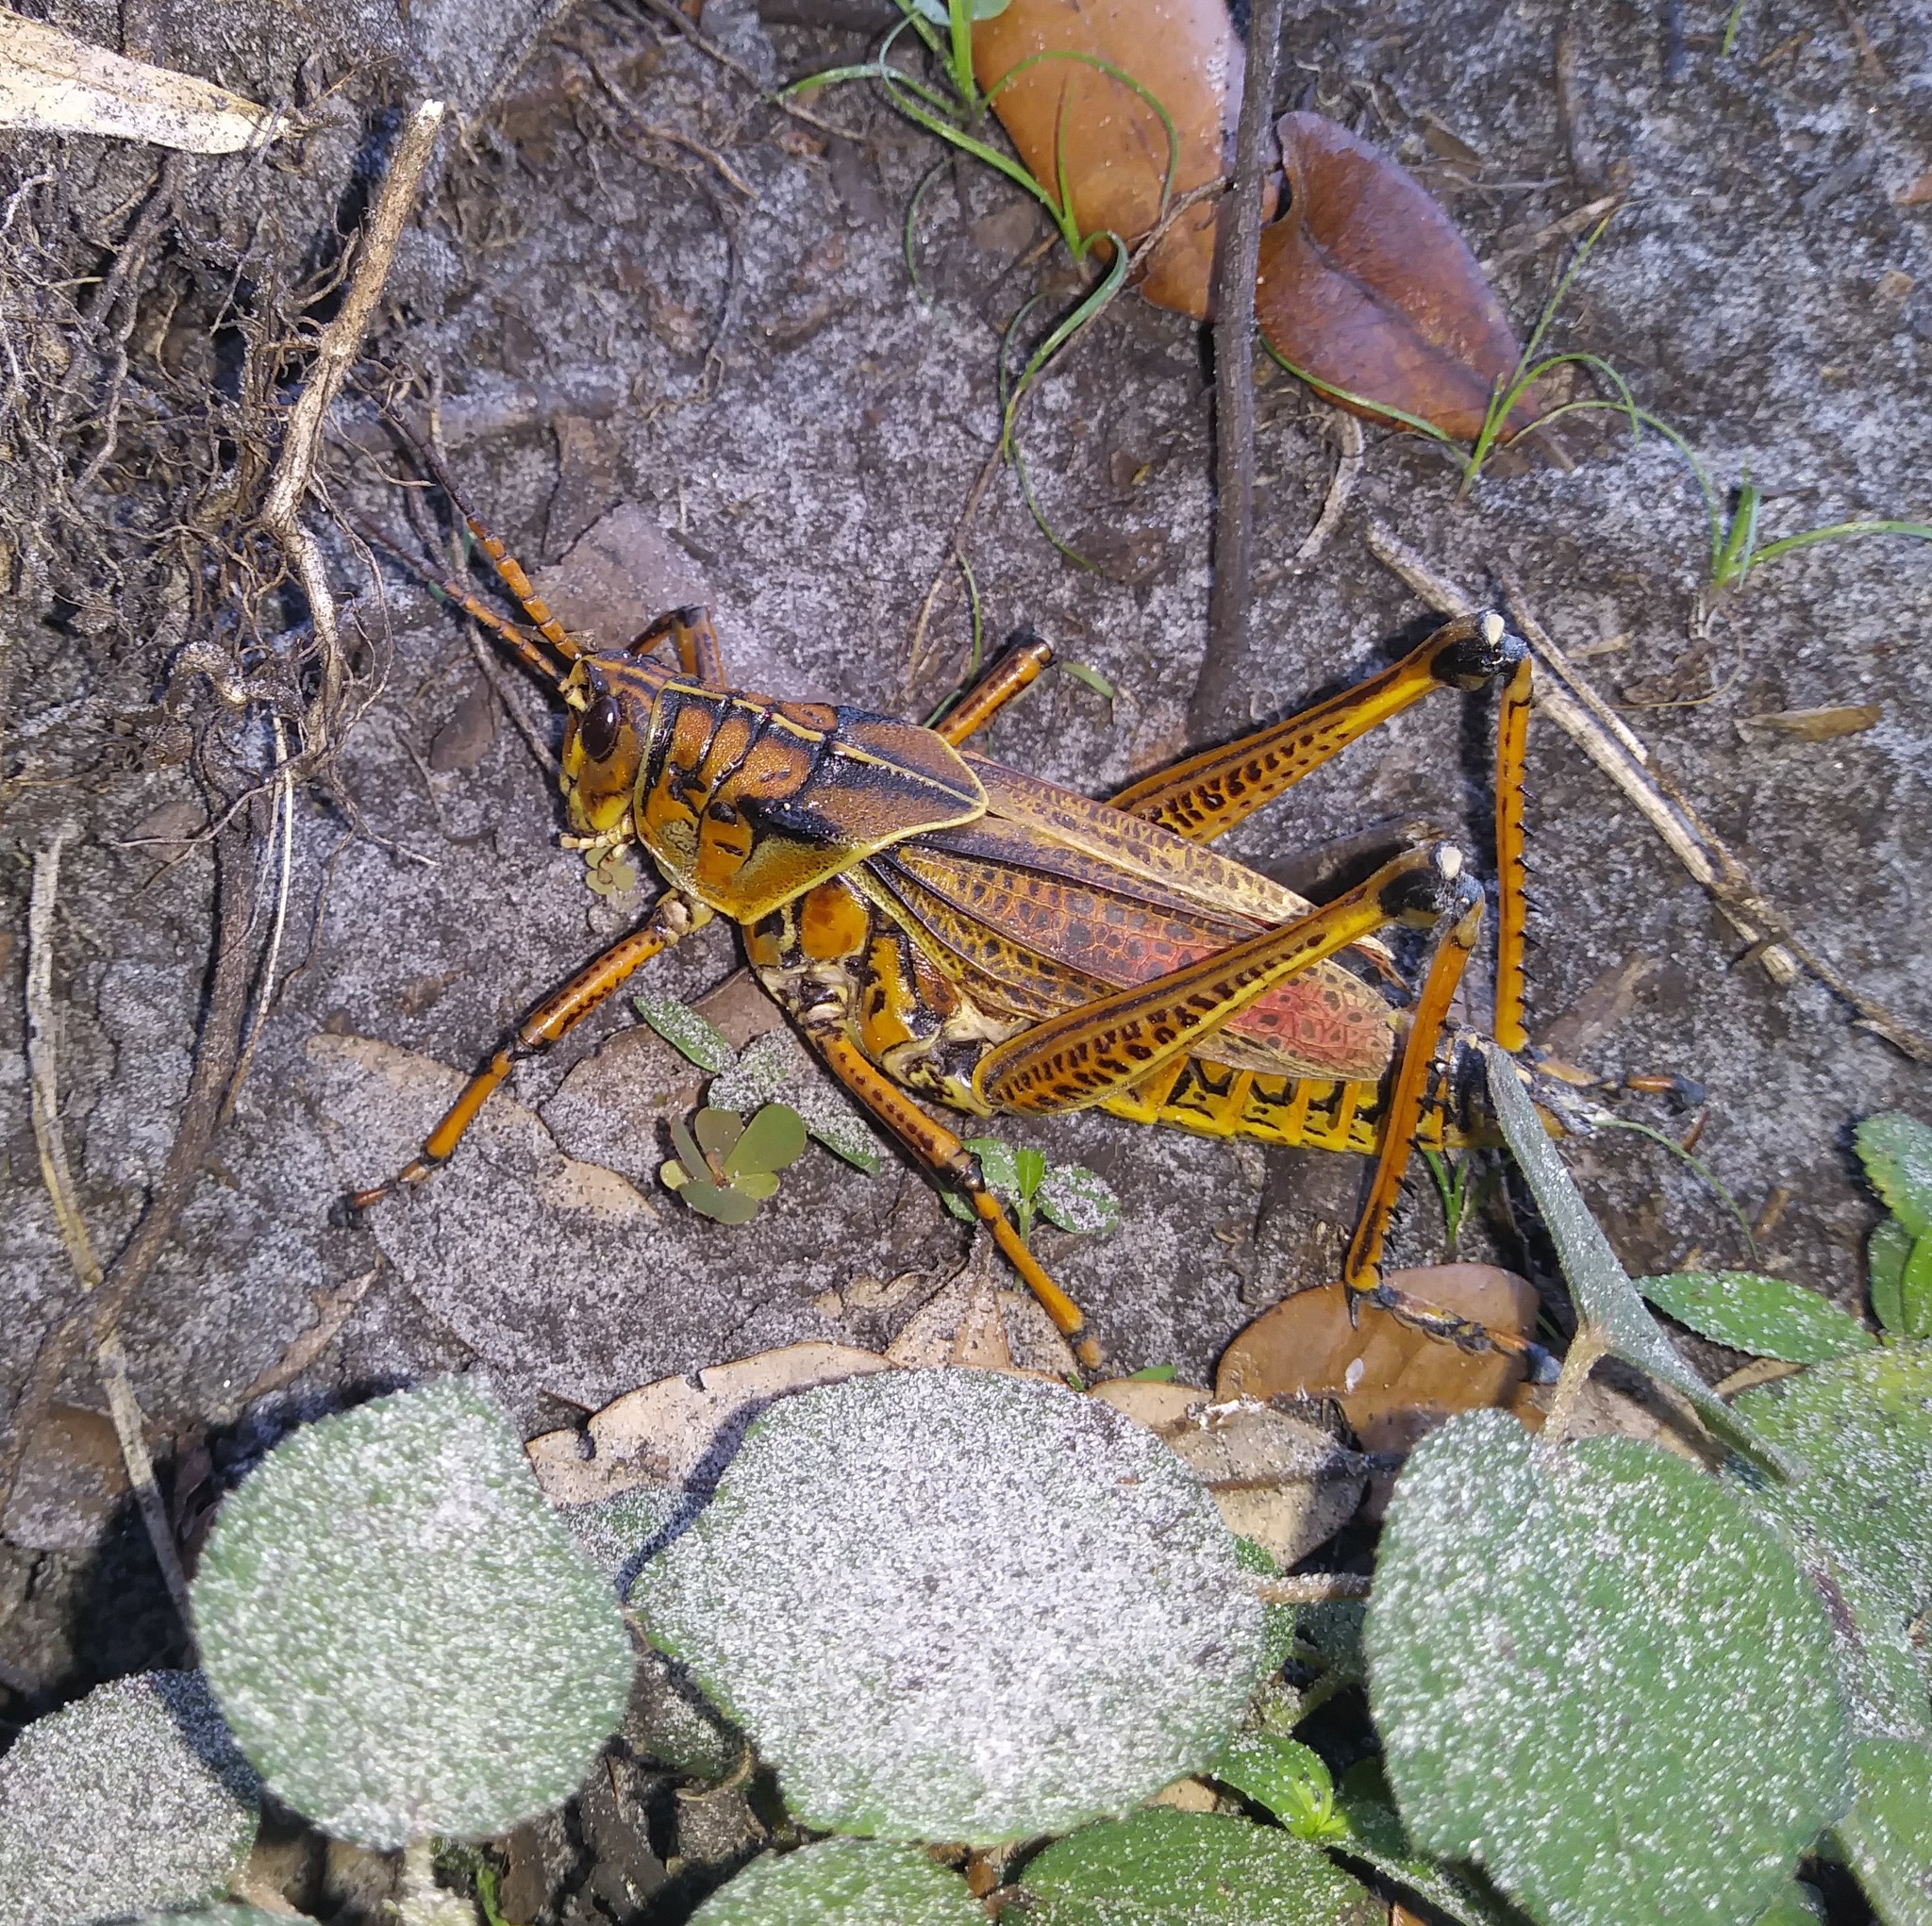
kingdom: Animalia
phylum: Arthropoda
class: Insecta
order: Orthoptera
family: Romaleidae
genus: Romalea
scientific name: Romalea microptera
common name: Eastern lubber grasshopper
